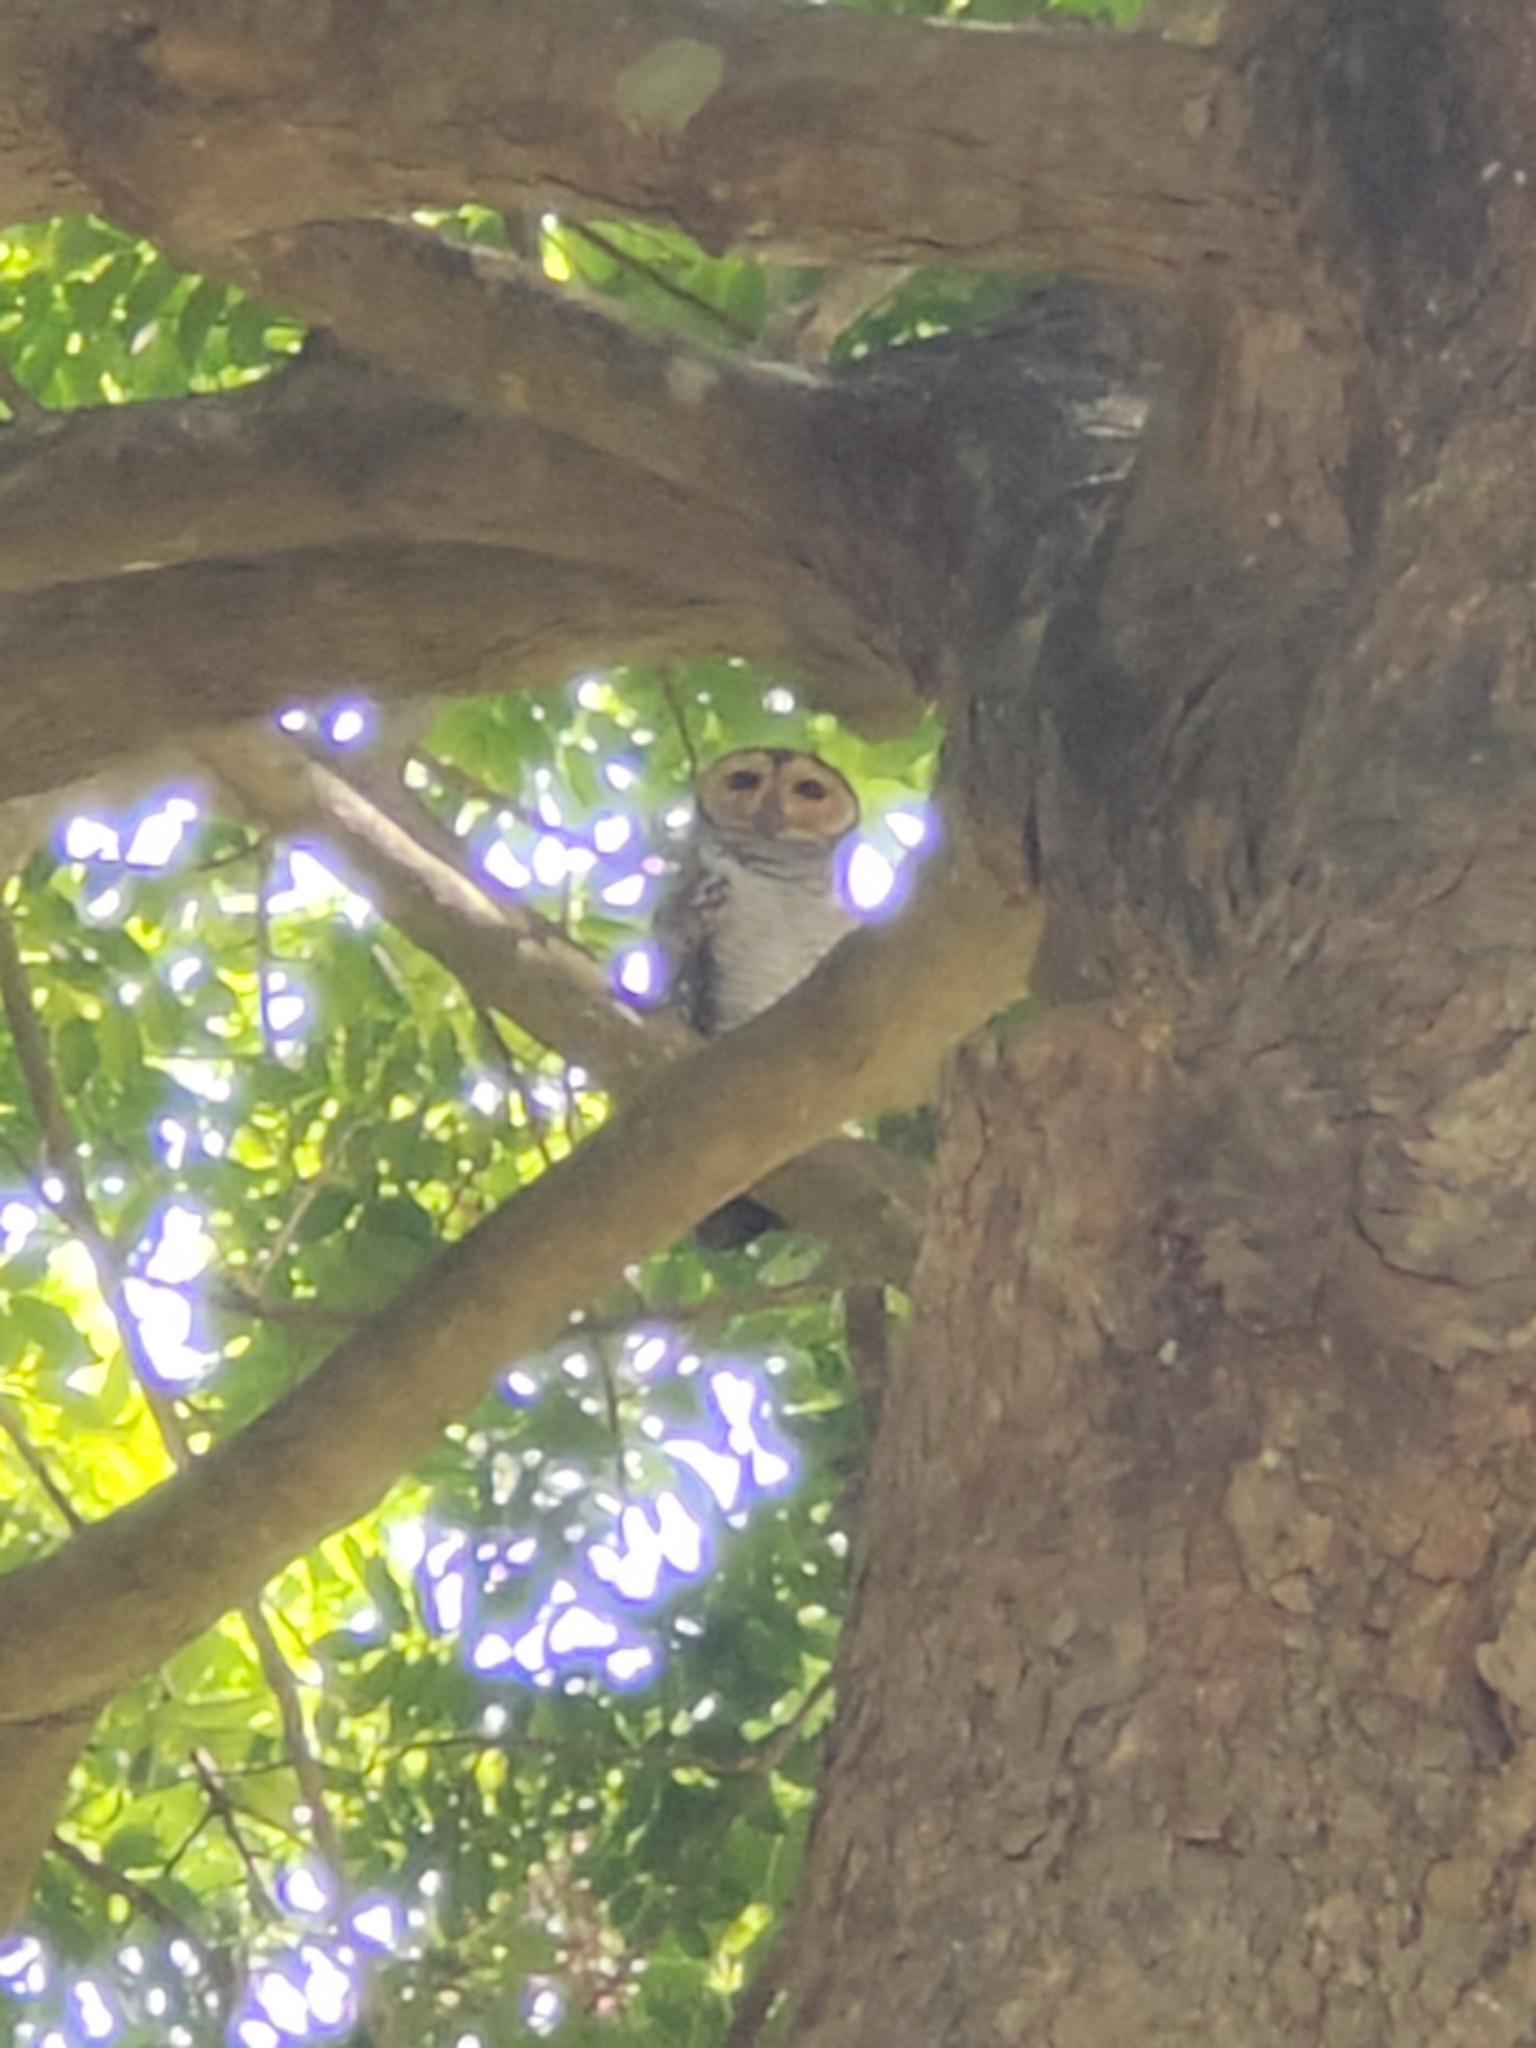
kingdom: Animalia
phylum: Chordata
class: Aves
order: Strigiformes
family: Strigidae
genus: Strix
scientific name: Strix seloputo
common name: Spotted wood owl
